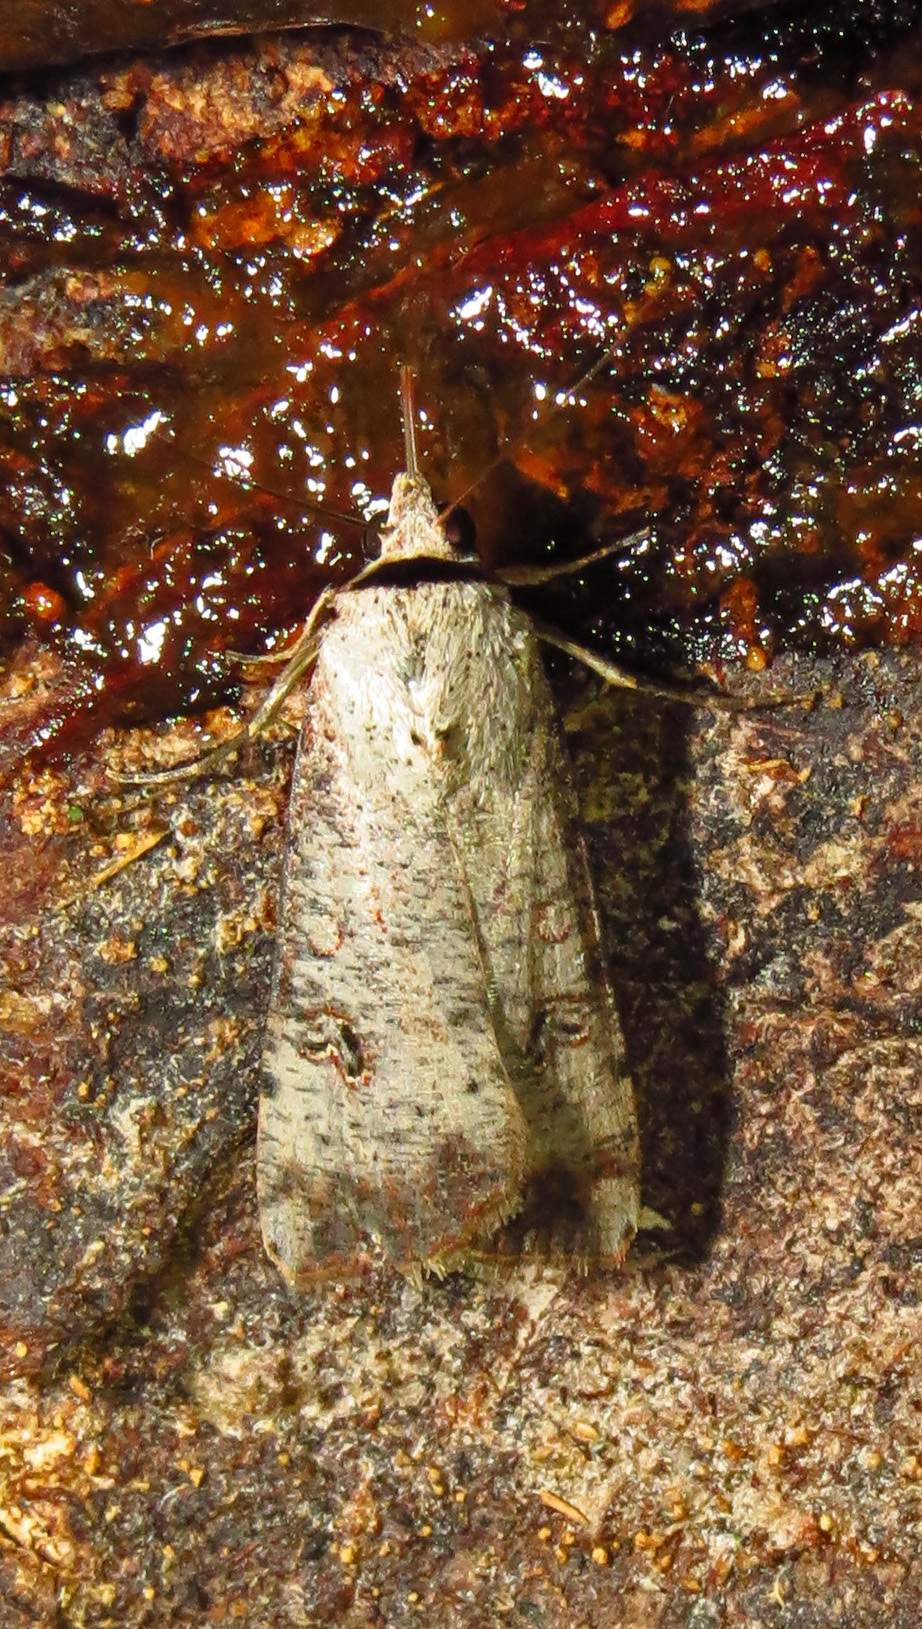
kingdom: Animalia
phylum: Arthropoda
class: Insecta
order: Lepidoptera
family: Noctuidae
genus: Anicla
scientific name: Anicla infecta
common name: Green cutworm
